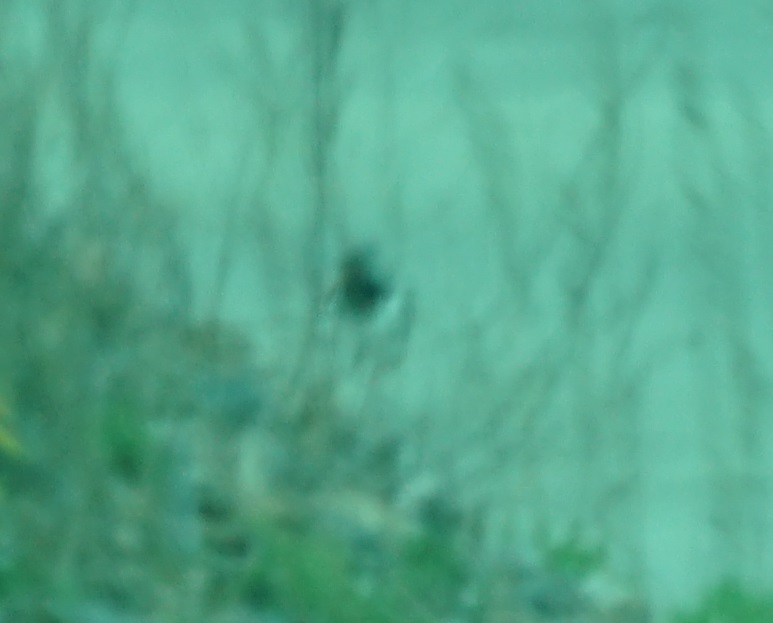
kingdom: Animalia
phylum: Chordata
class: Aves
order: Charadriiformes
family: Haematopodidae
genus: Haematopus
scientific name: Haematopus ostralegus
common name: Eurasian oystercatcher
